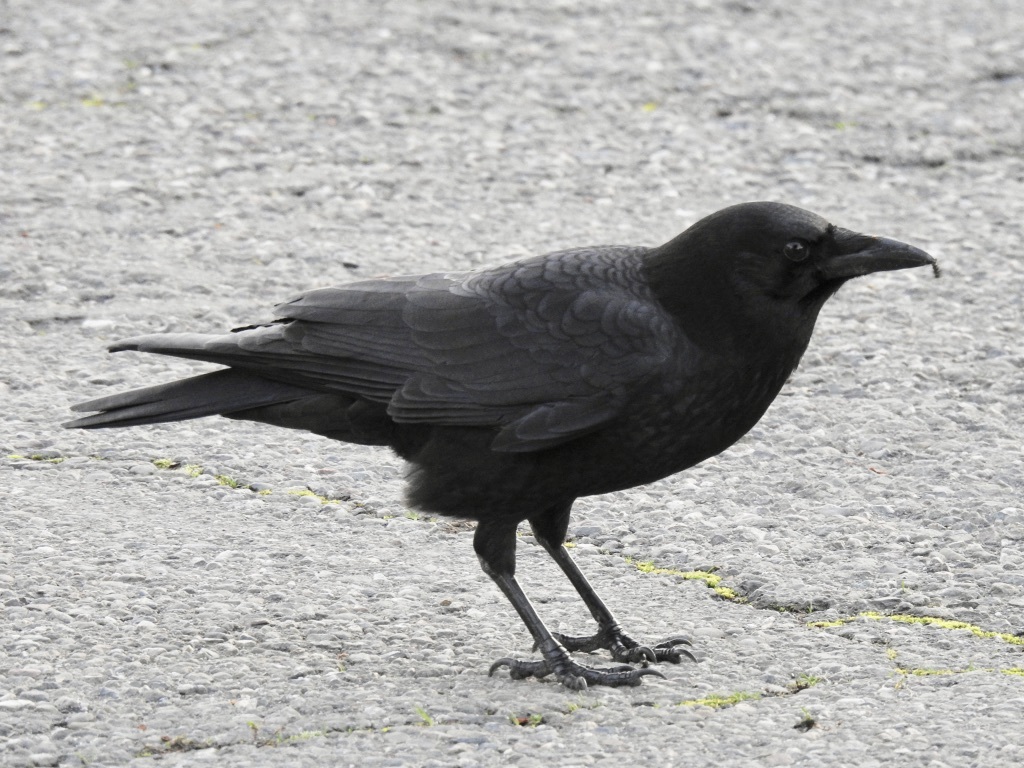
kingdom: Animalia
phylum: Chordata
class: Aves
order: Passeriformes
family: Corvidae
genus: Corvus
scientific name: Corvus brachyrhynchos
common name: American crow
